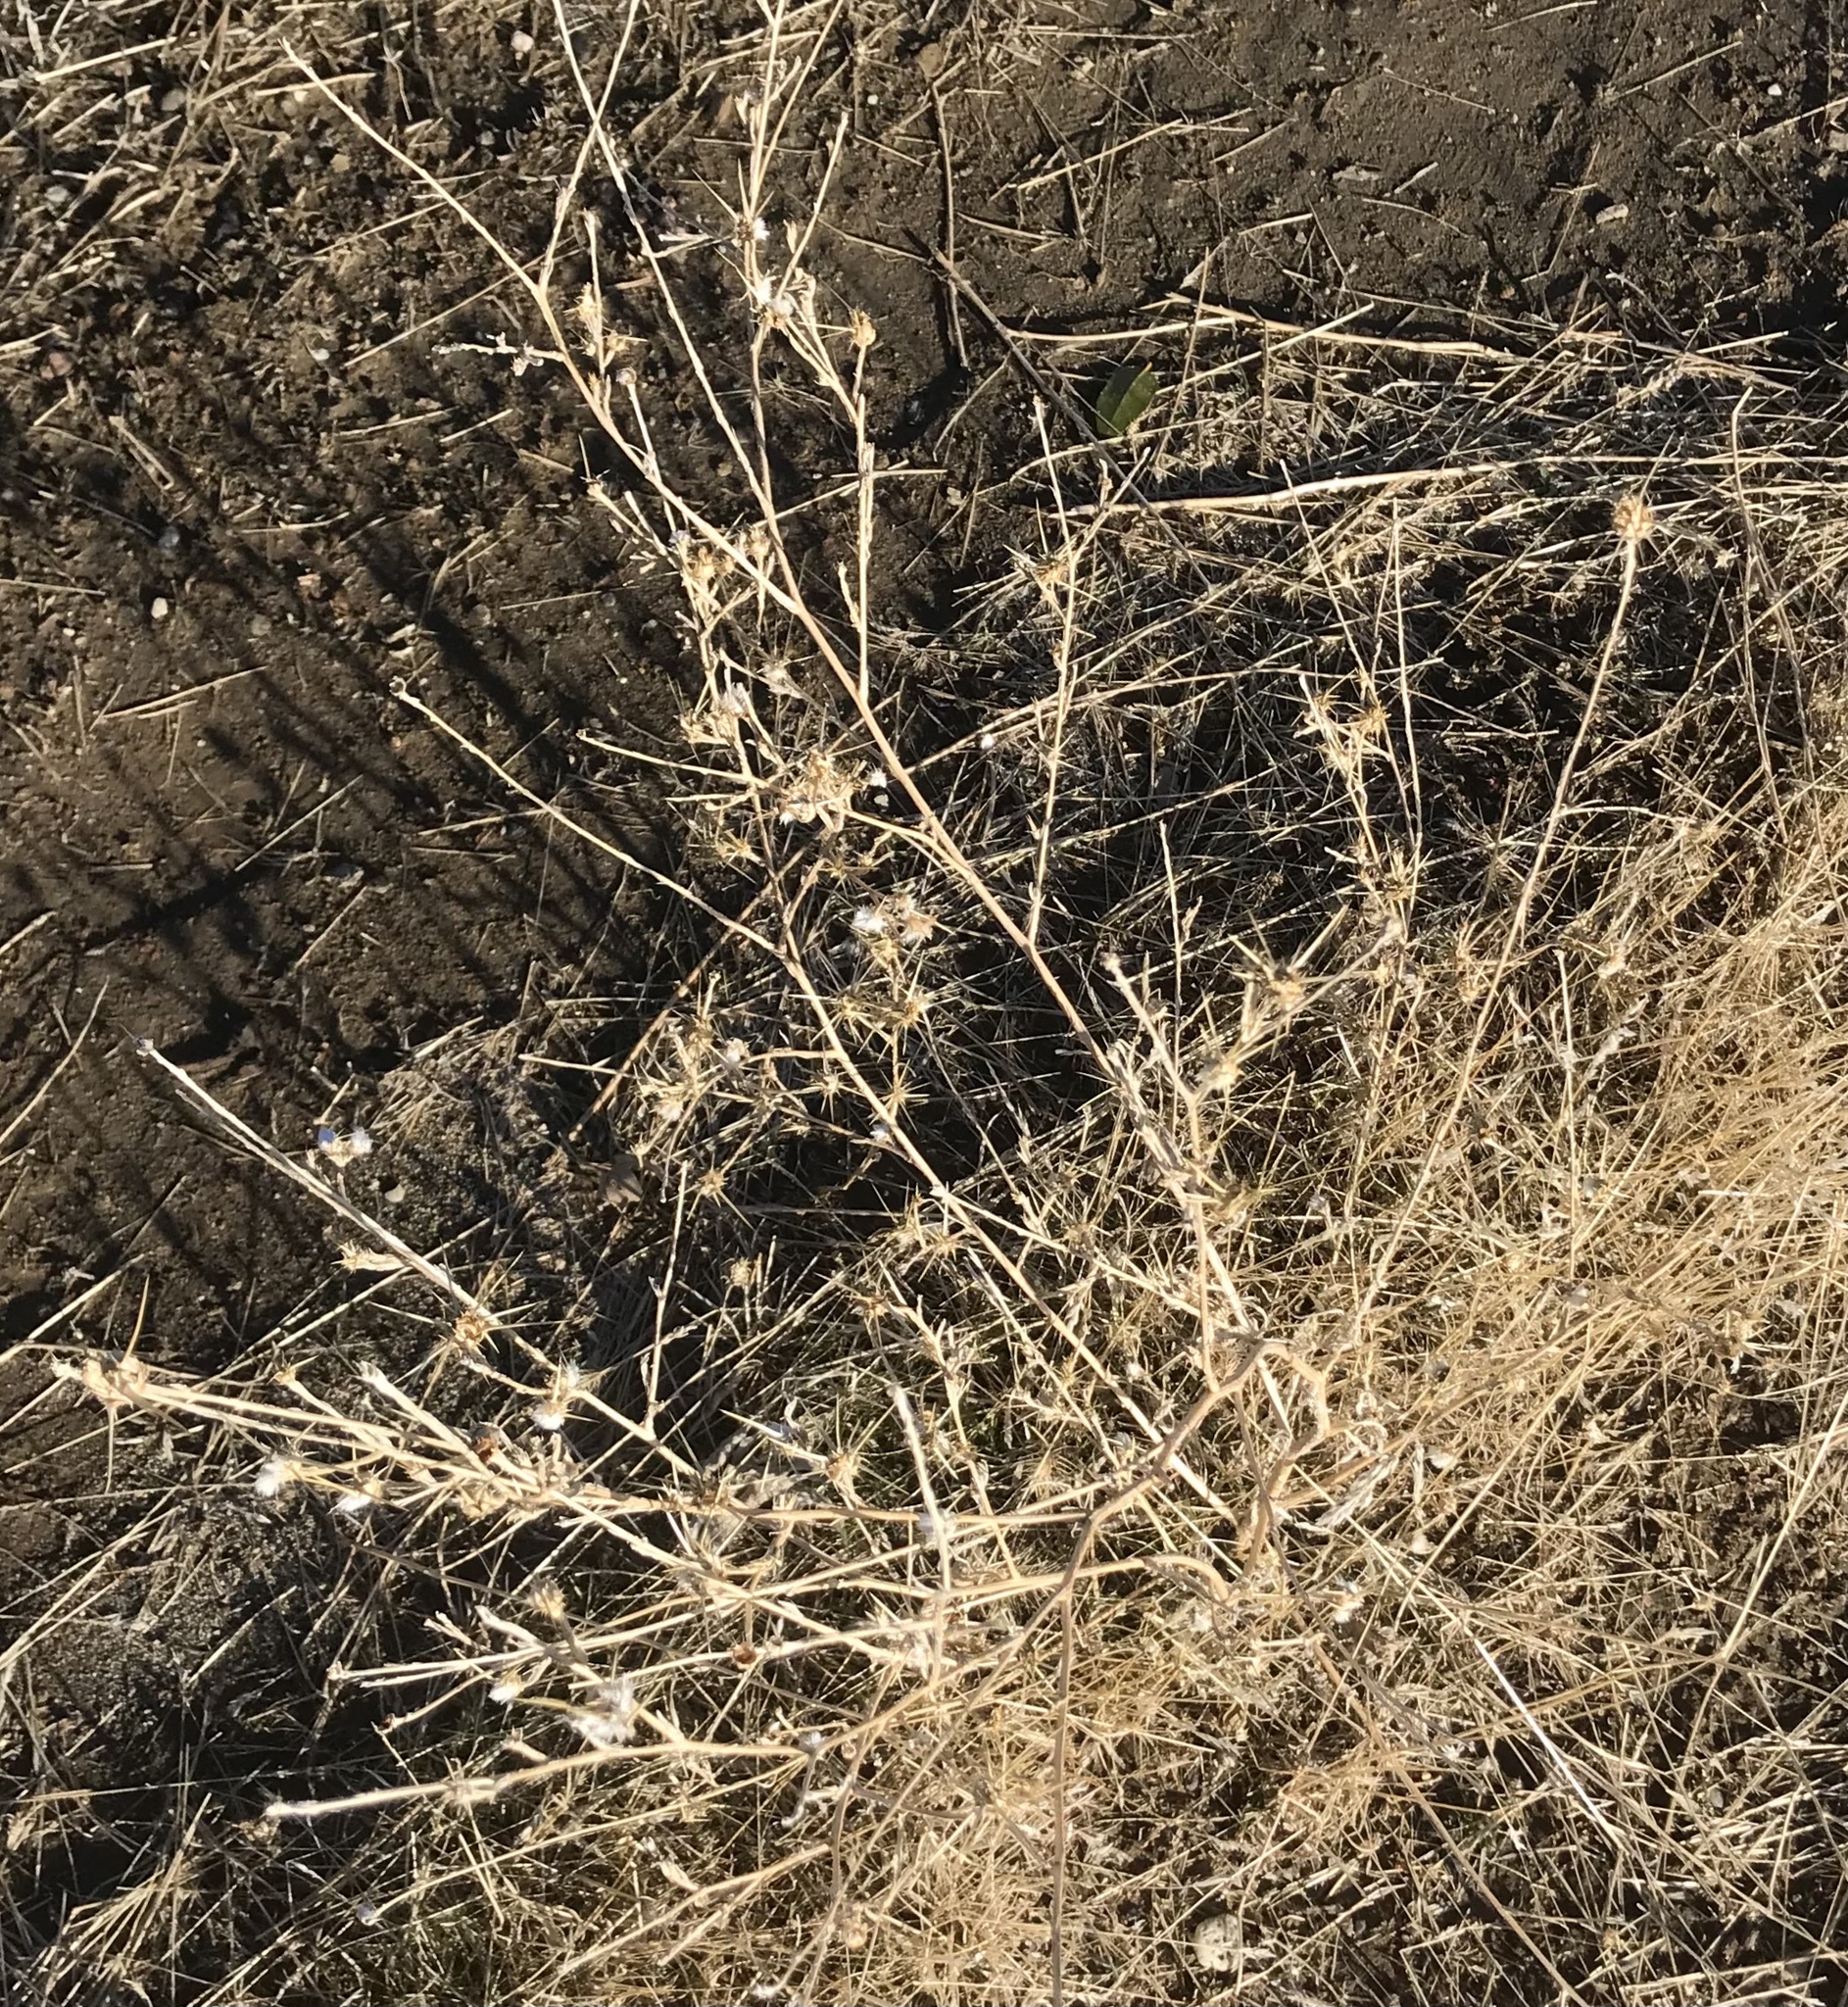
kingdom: Plantae
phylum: Tracheophyta
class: Magnoliopsida
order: Asterales
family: Asteraceae
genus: Centaurea
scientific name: Centaurea solstitialis
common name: Yellow star-thistle
